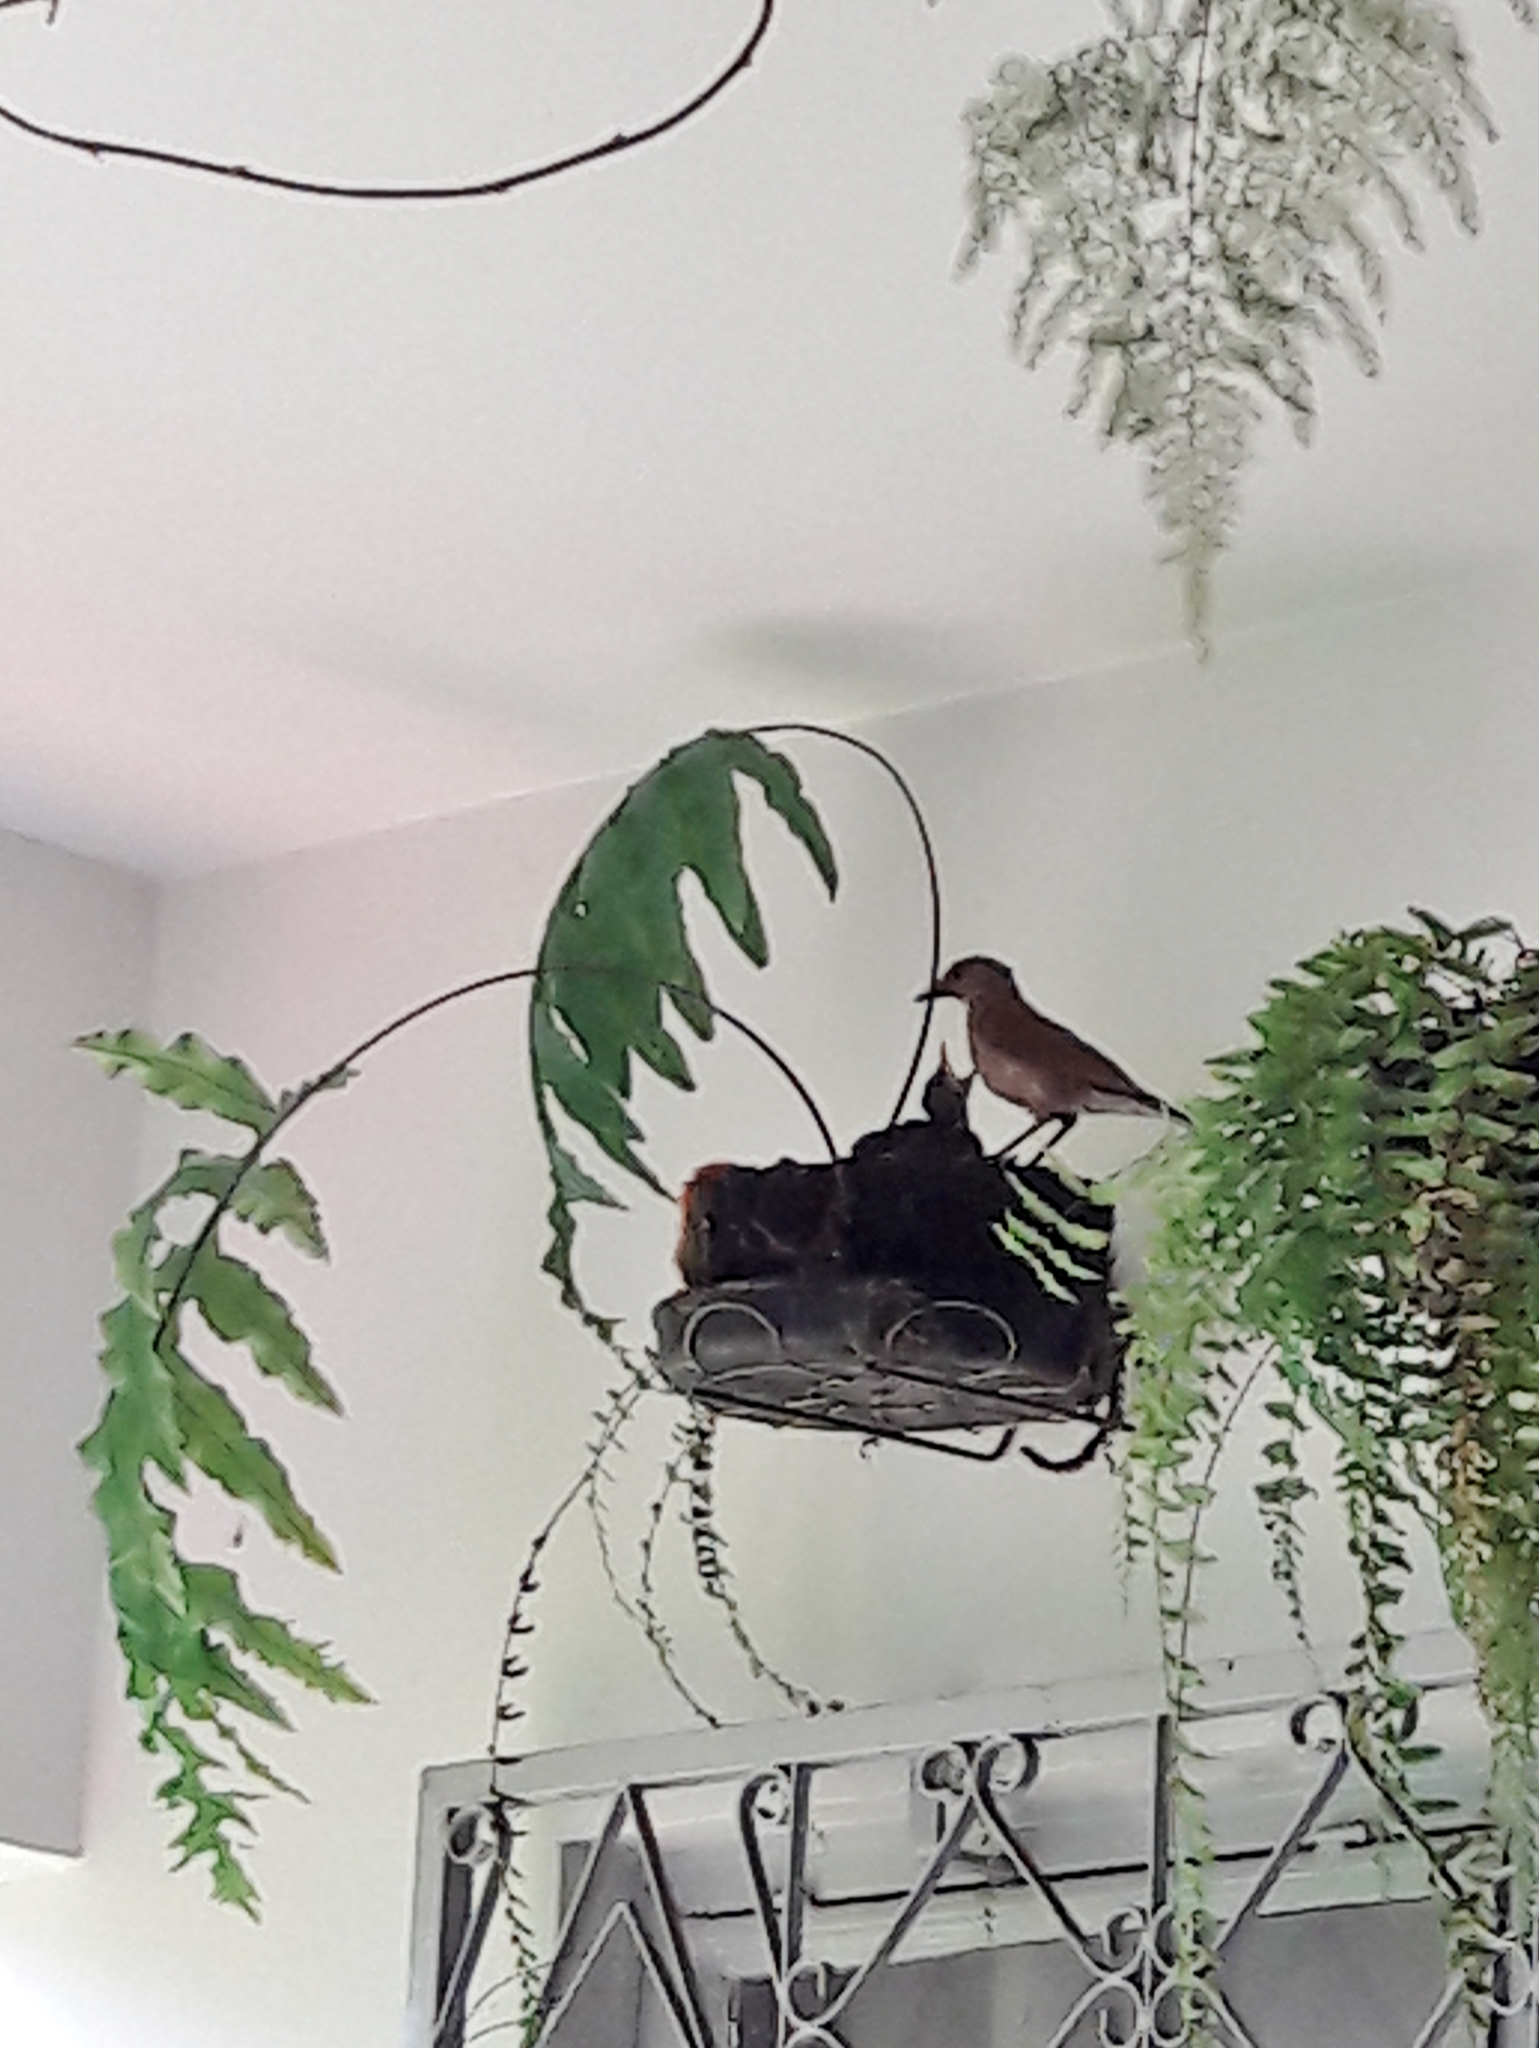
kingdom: Animalia
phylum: Chordata
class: Aves
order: Passeriformes
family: Turdidae
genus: Turdus
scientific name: Turdus leucomelas
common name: Pale-breasted thrush
